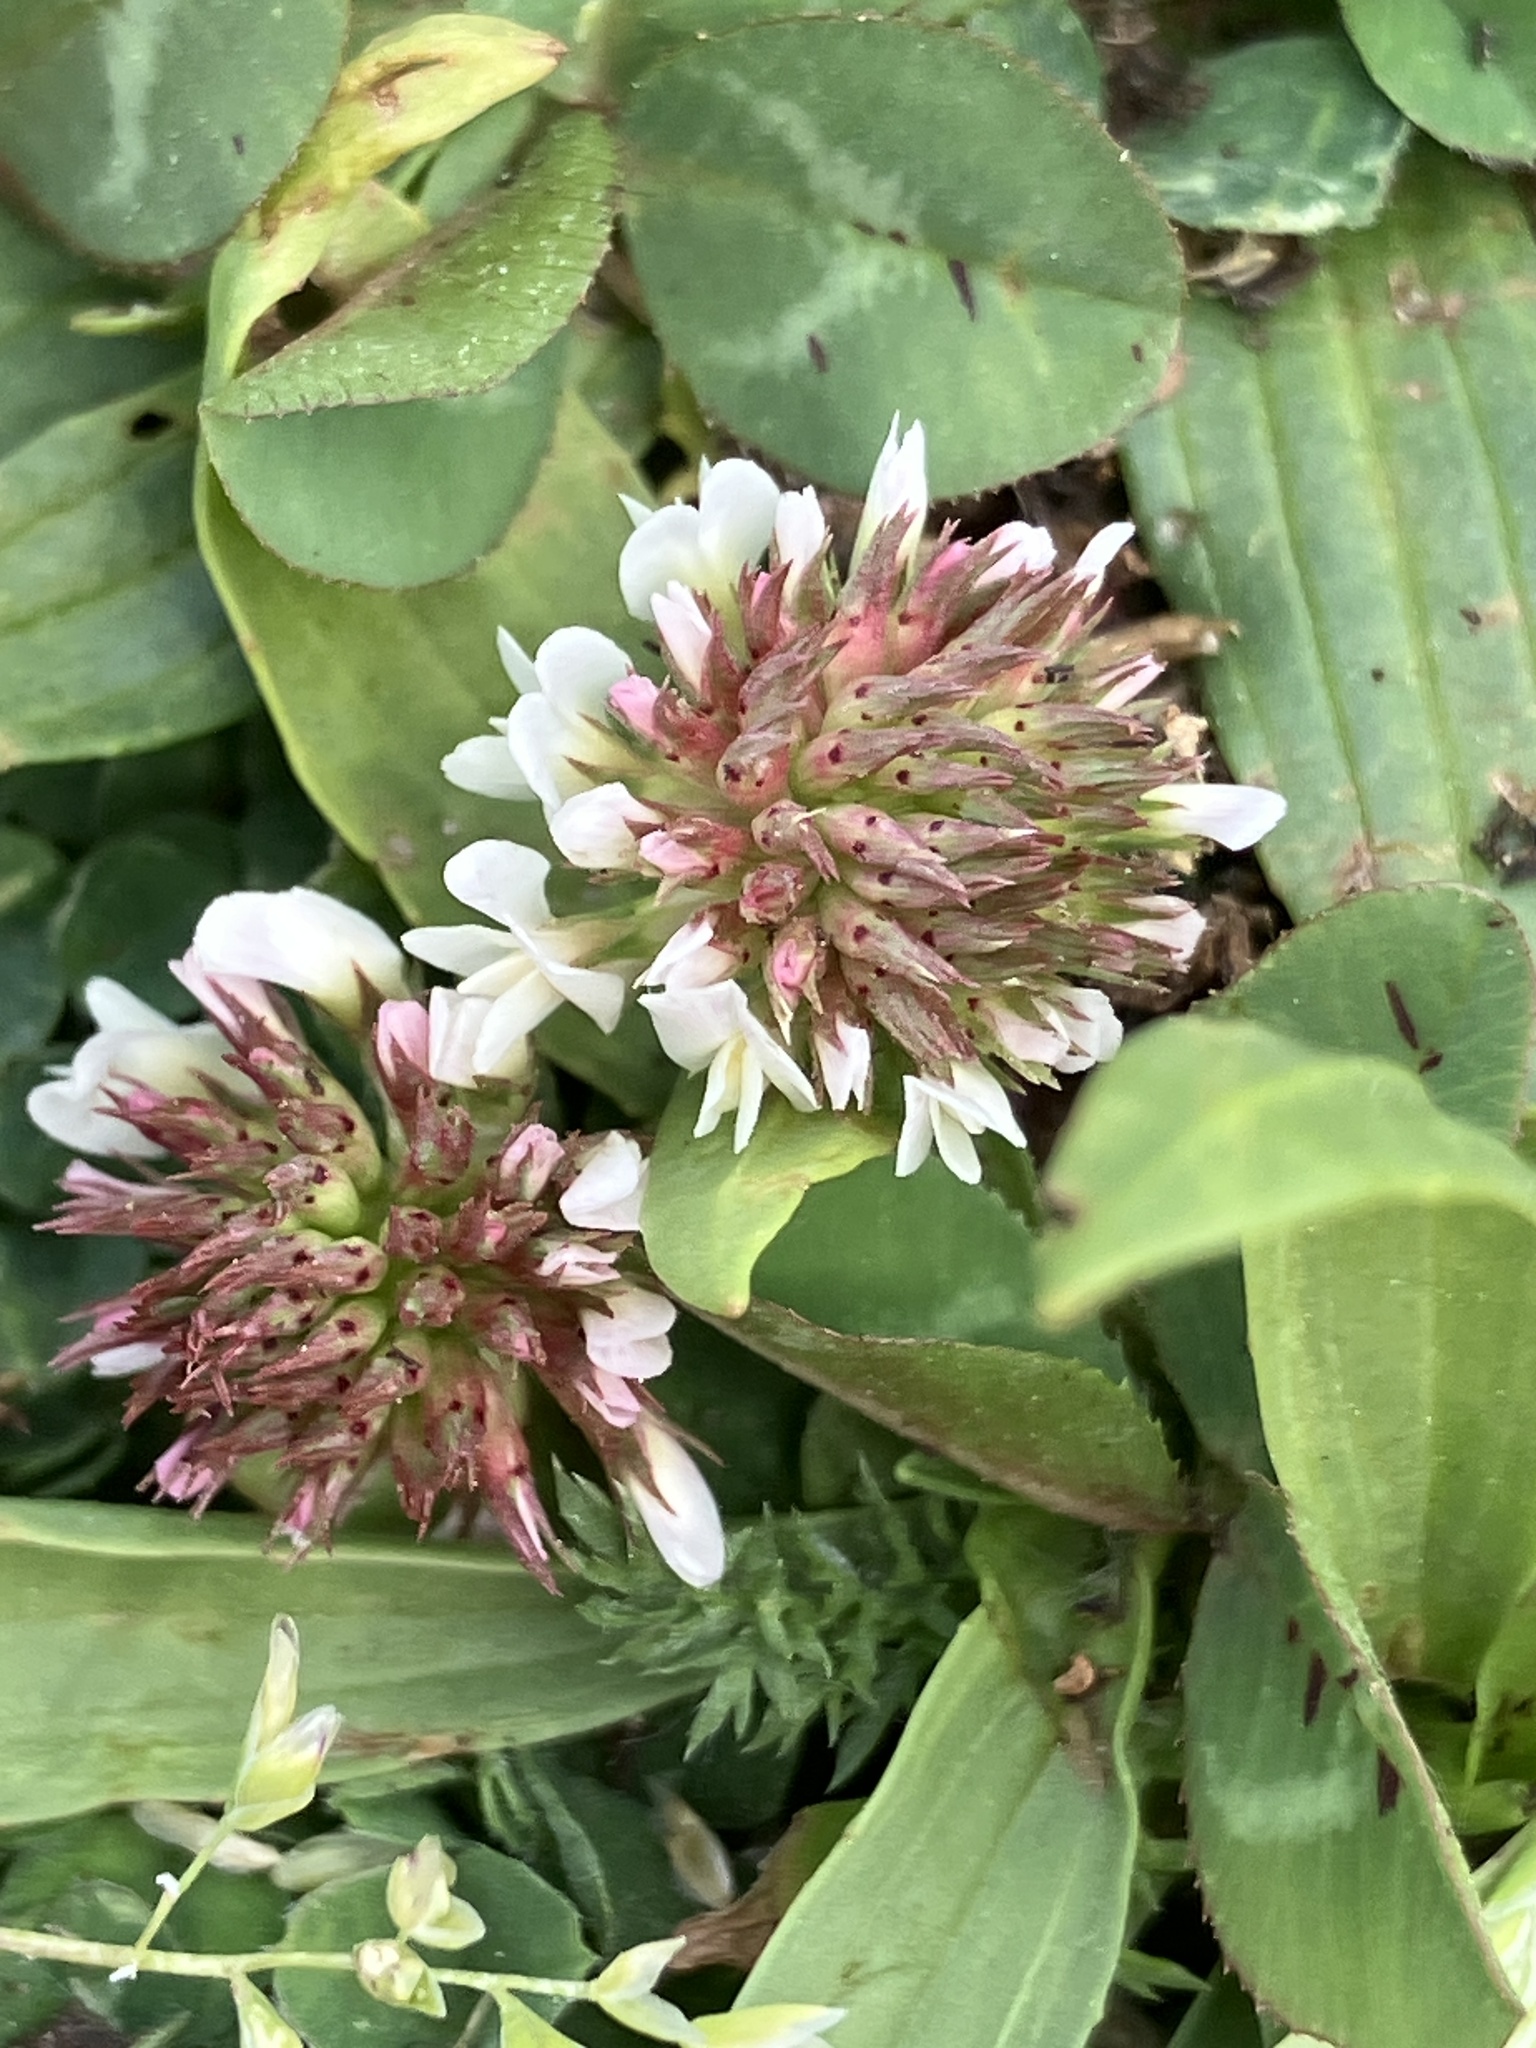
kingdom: Plantae
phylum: Tracheophyta
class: Magnoliopsida
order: Fabales
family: Fabaceae
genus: Trifolium
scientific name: Trifolium repens
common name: White clover
